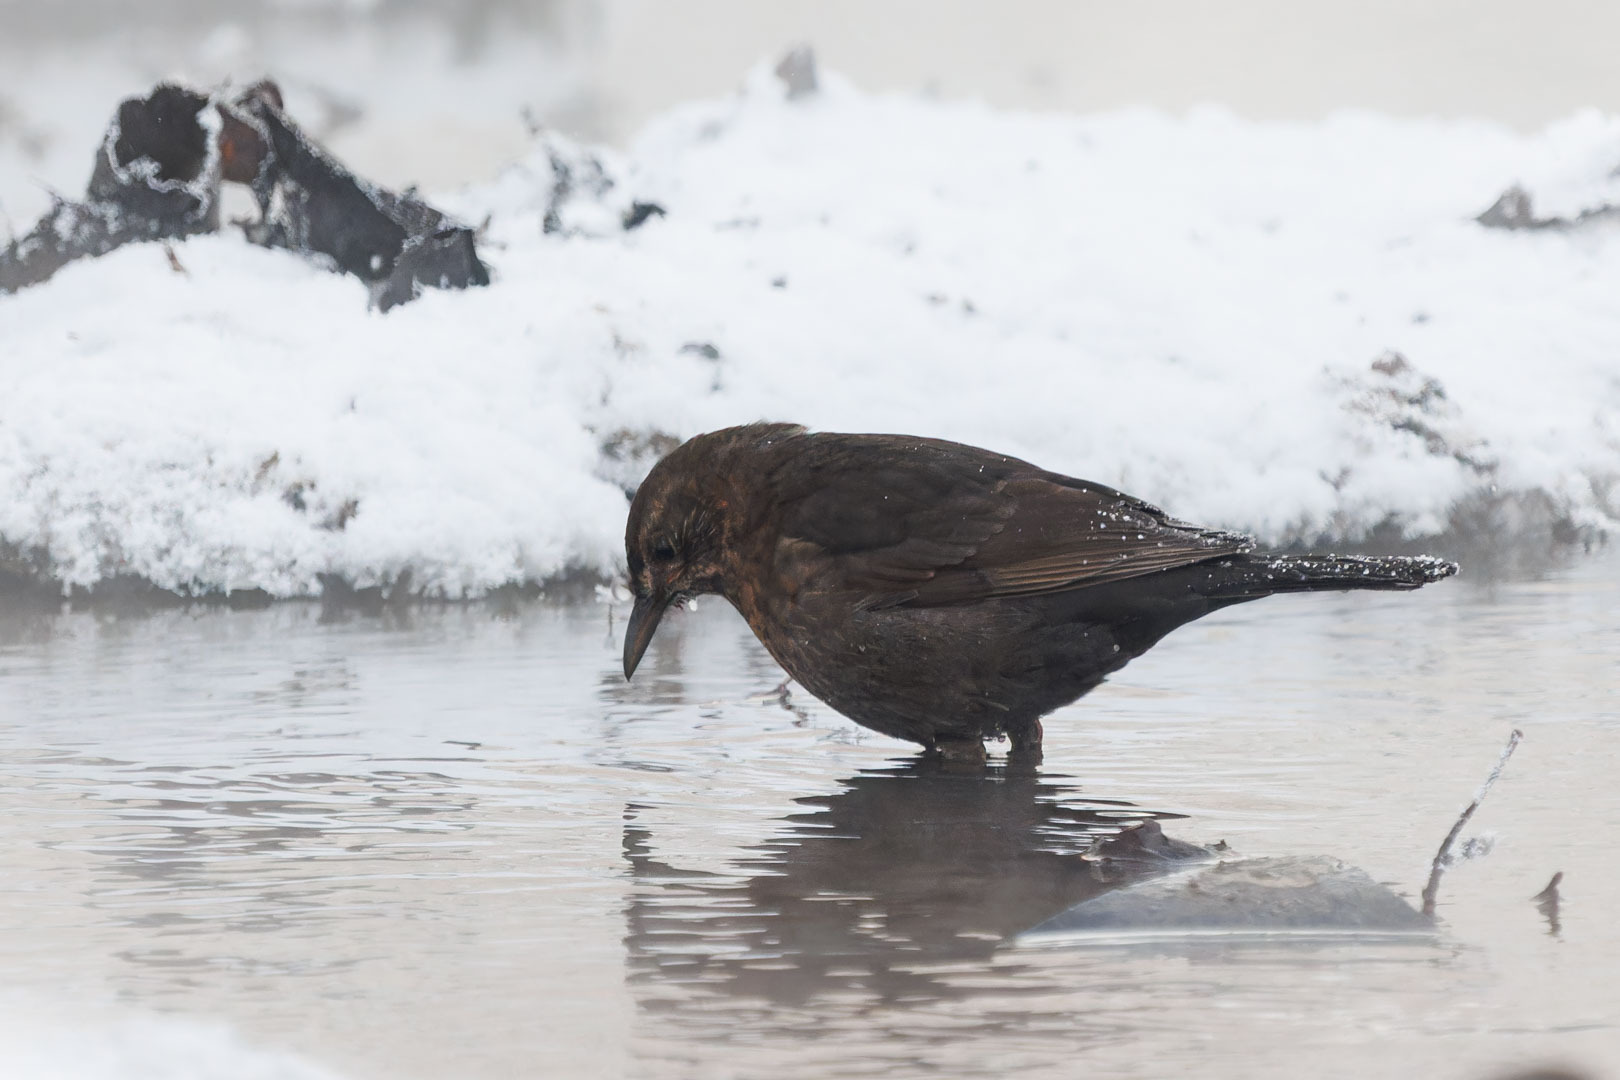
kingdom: Animalia
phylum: Chordata
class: Aves
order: Passeriformes
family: Turdidae
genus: Turdus
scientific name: Turdus merula
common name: Common blackbird
